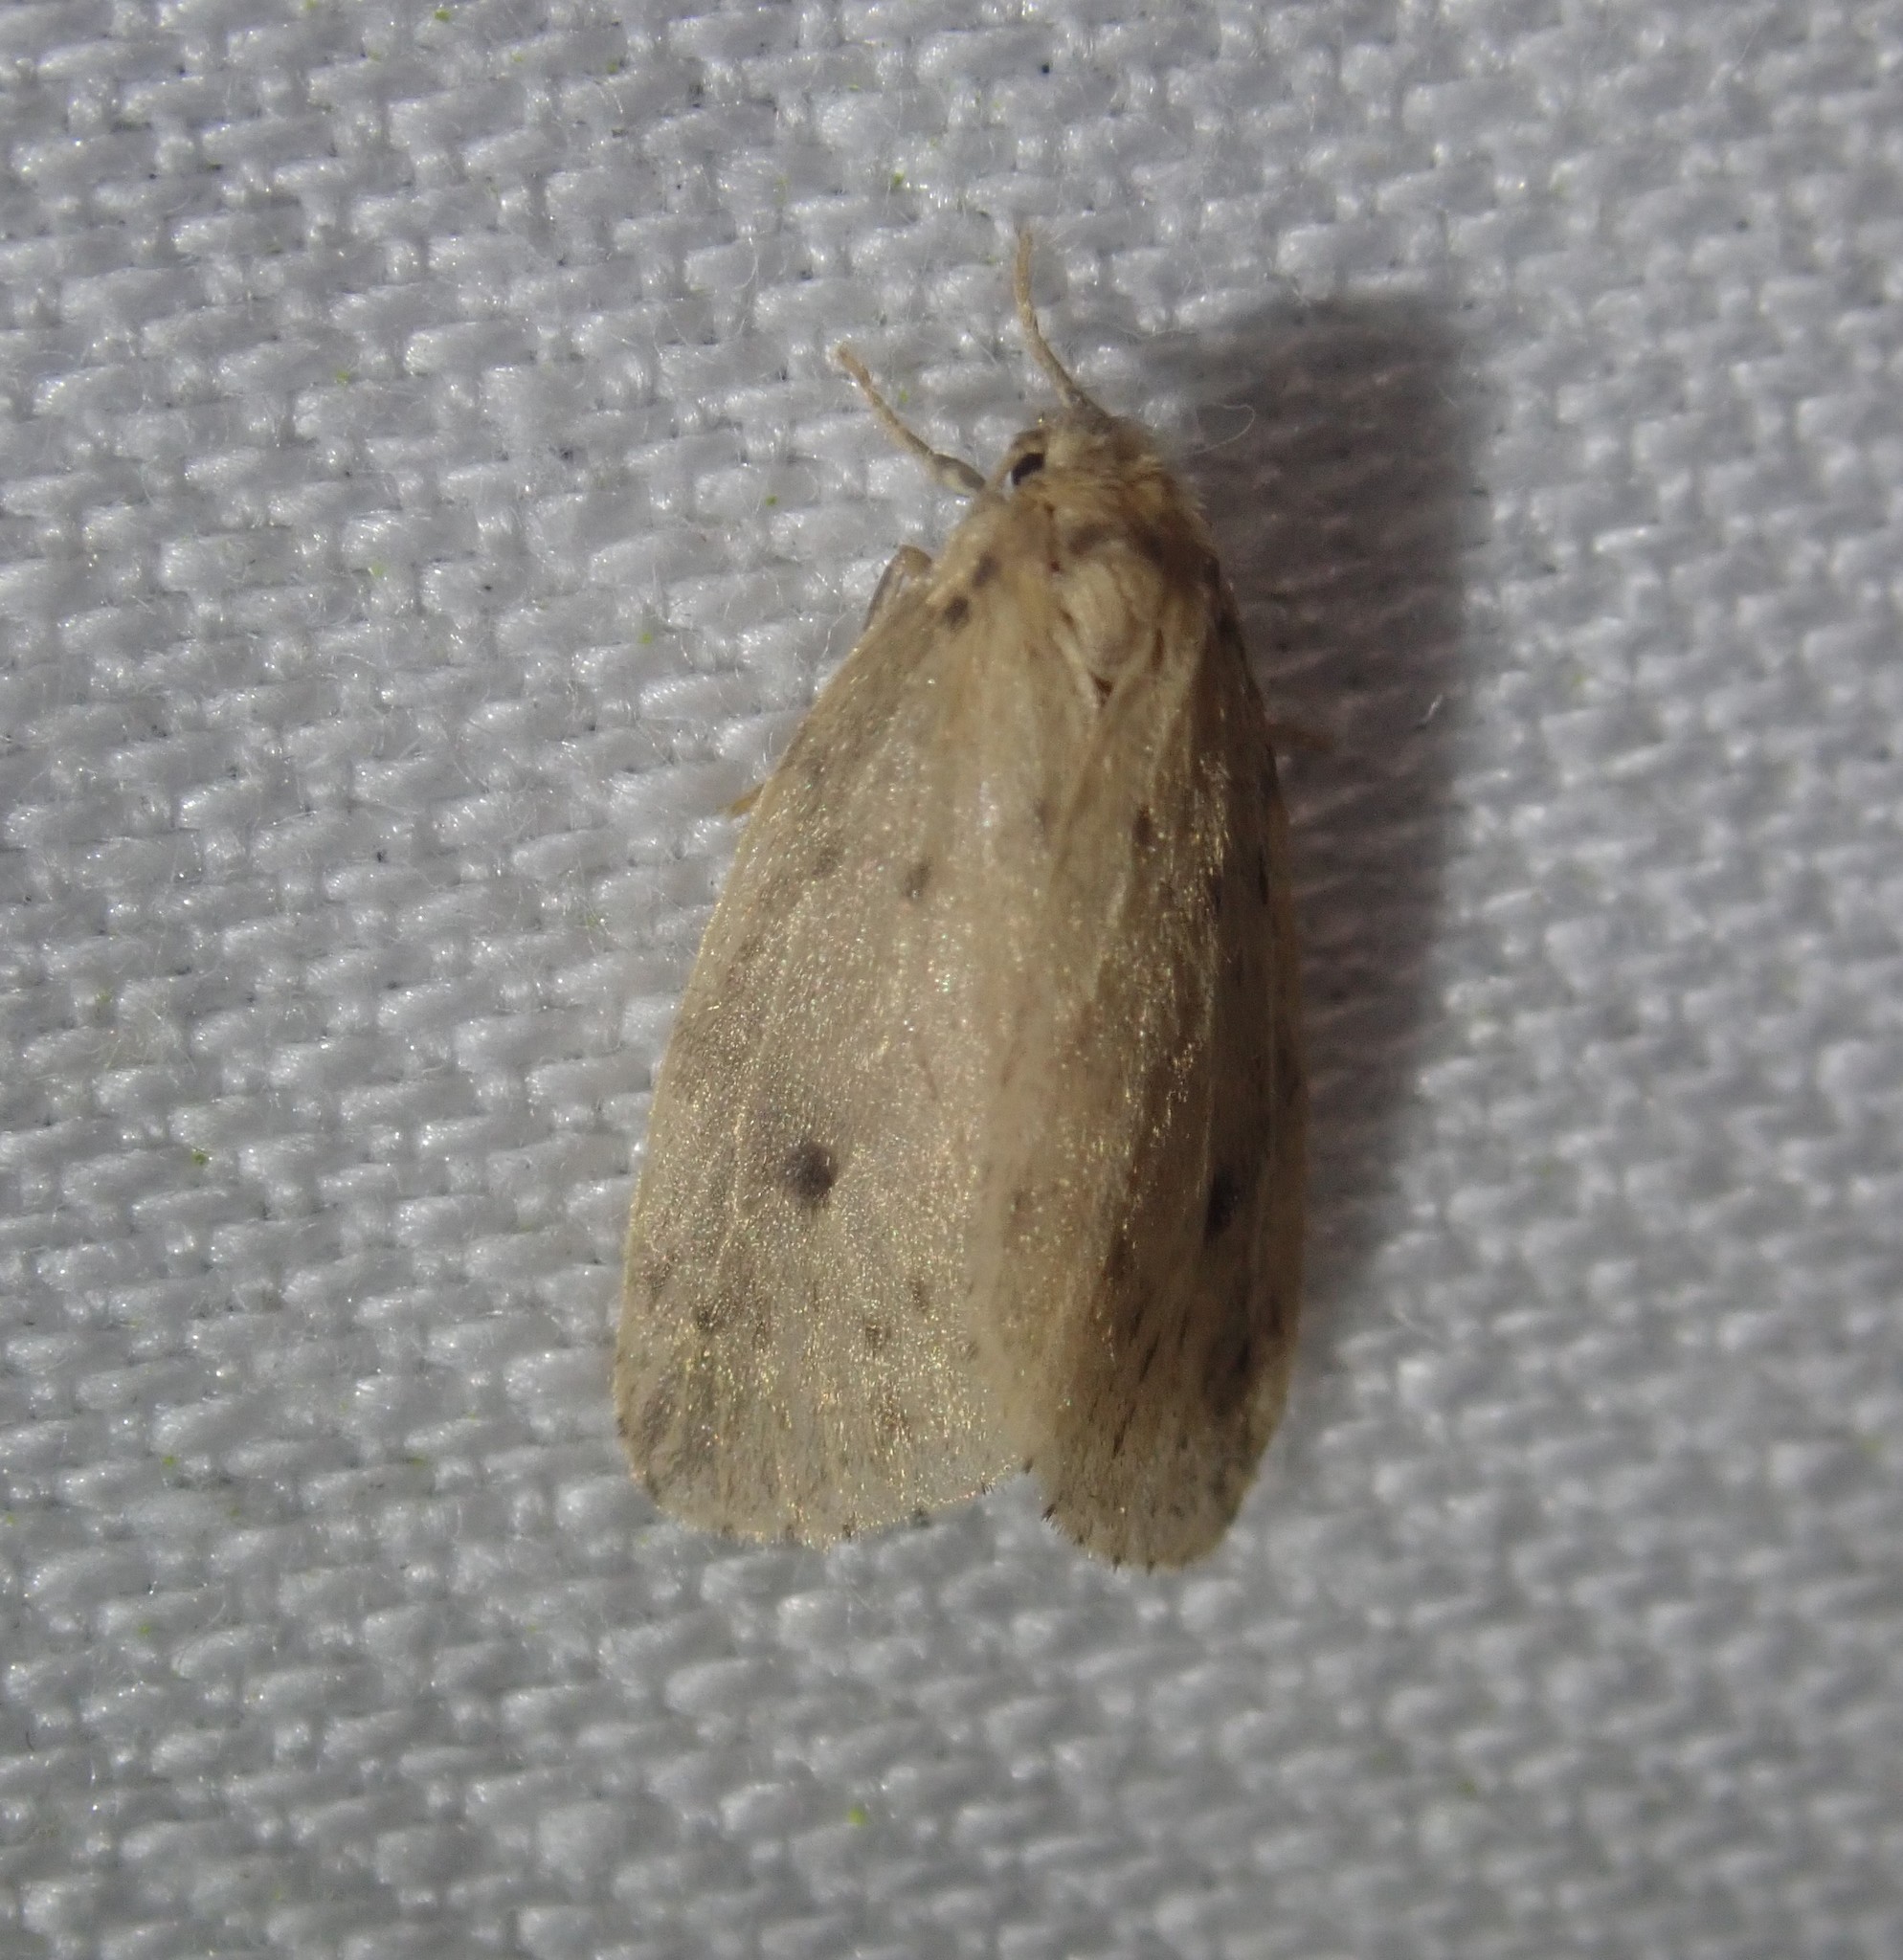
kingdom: Animalia
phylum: Arthropoda
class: Insecta
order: Lepidoptera
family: Erebidae
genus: Thumatha
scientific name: Thumatha senex
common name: Round-winged muslin
